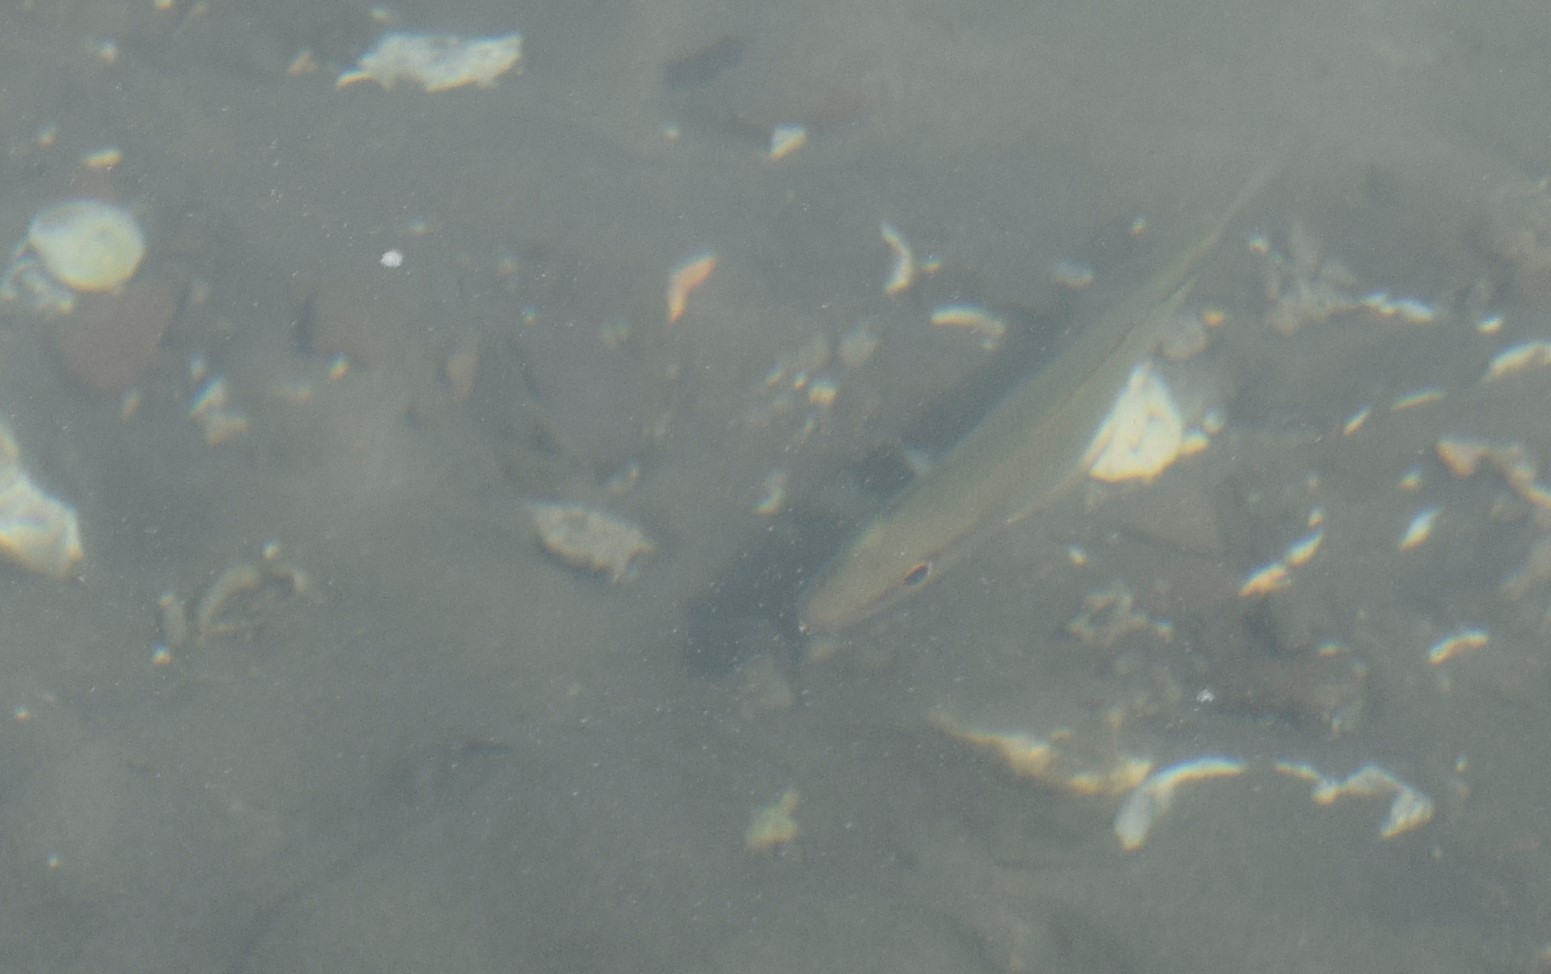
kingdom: Animalia
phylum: Chordata
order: Perciformes
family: Lutjanidae
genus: Lutjanus
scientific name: Lutjanus griseus
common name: Gray snapper
